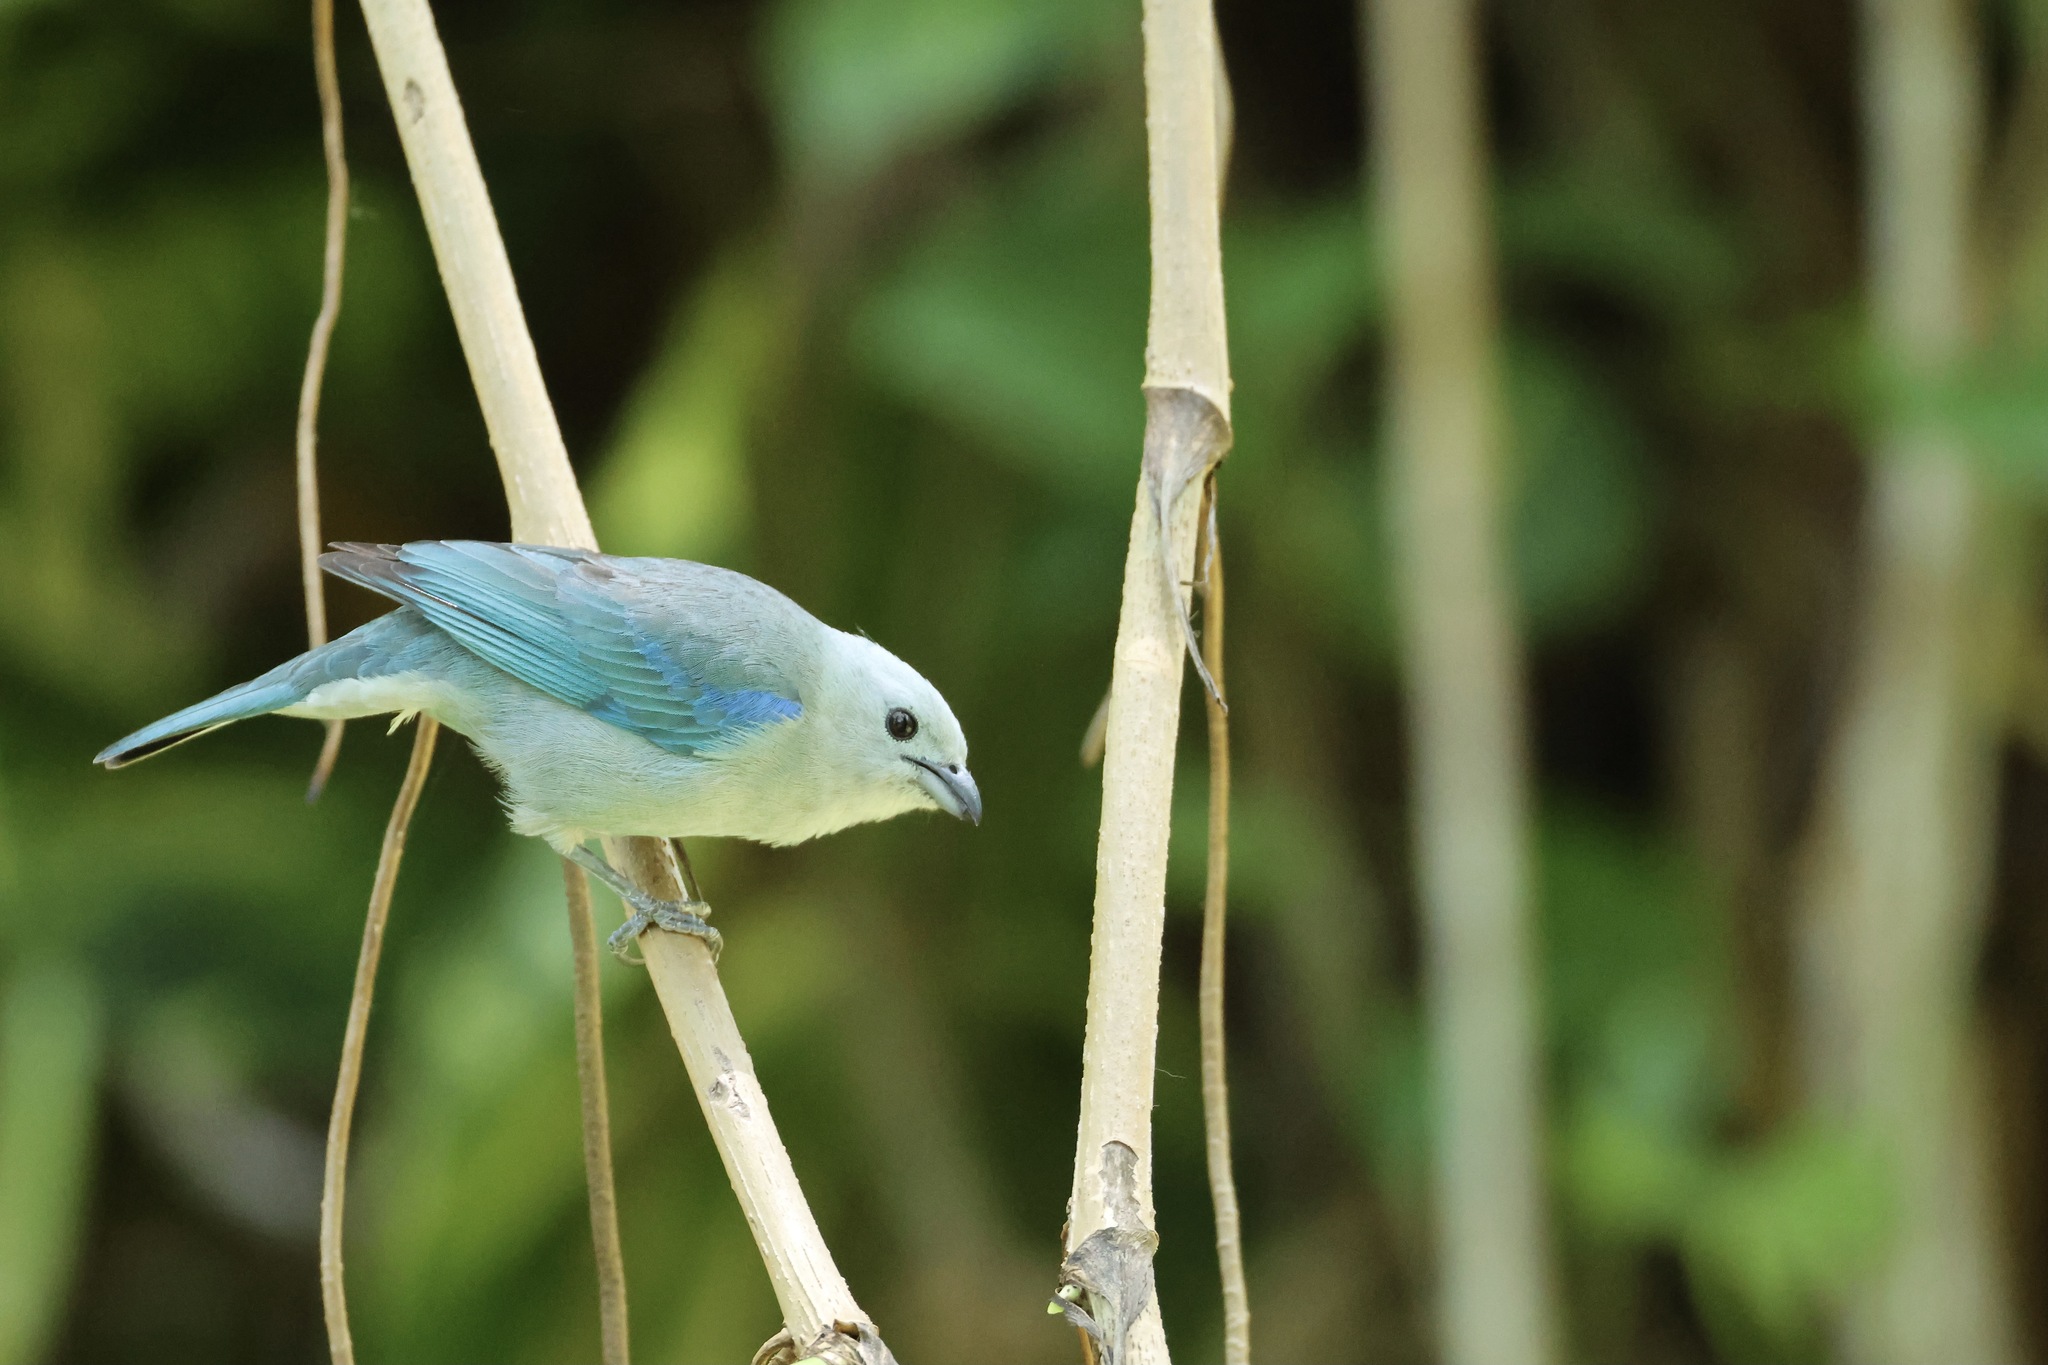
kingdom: Animalia
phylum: Chordata
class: Aves
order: Passeriformes
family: Thraupidae
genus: Thraupis
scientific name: Thraupis episcopus
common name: Blue-grey tanager
